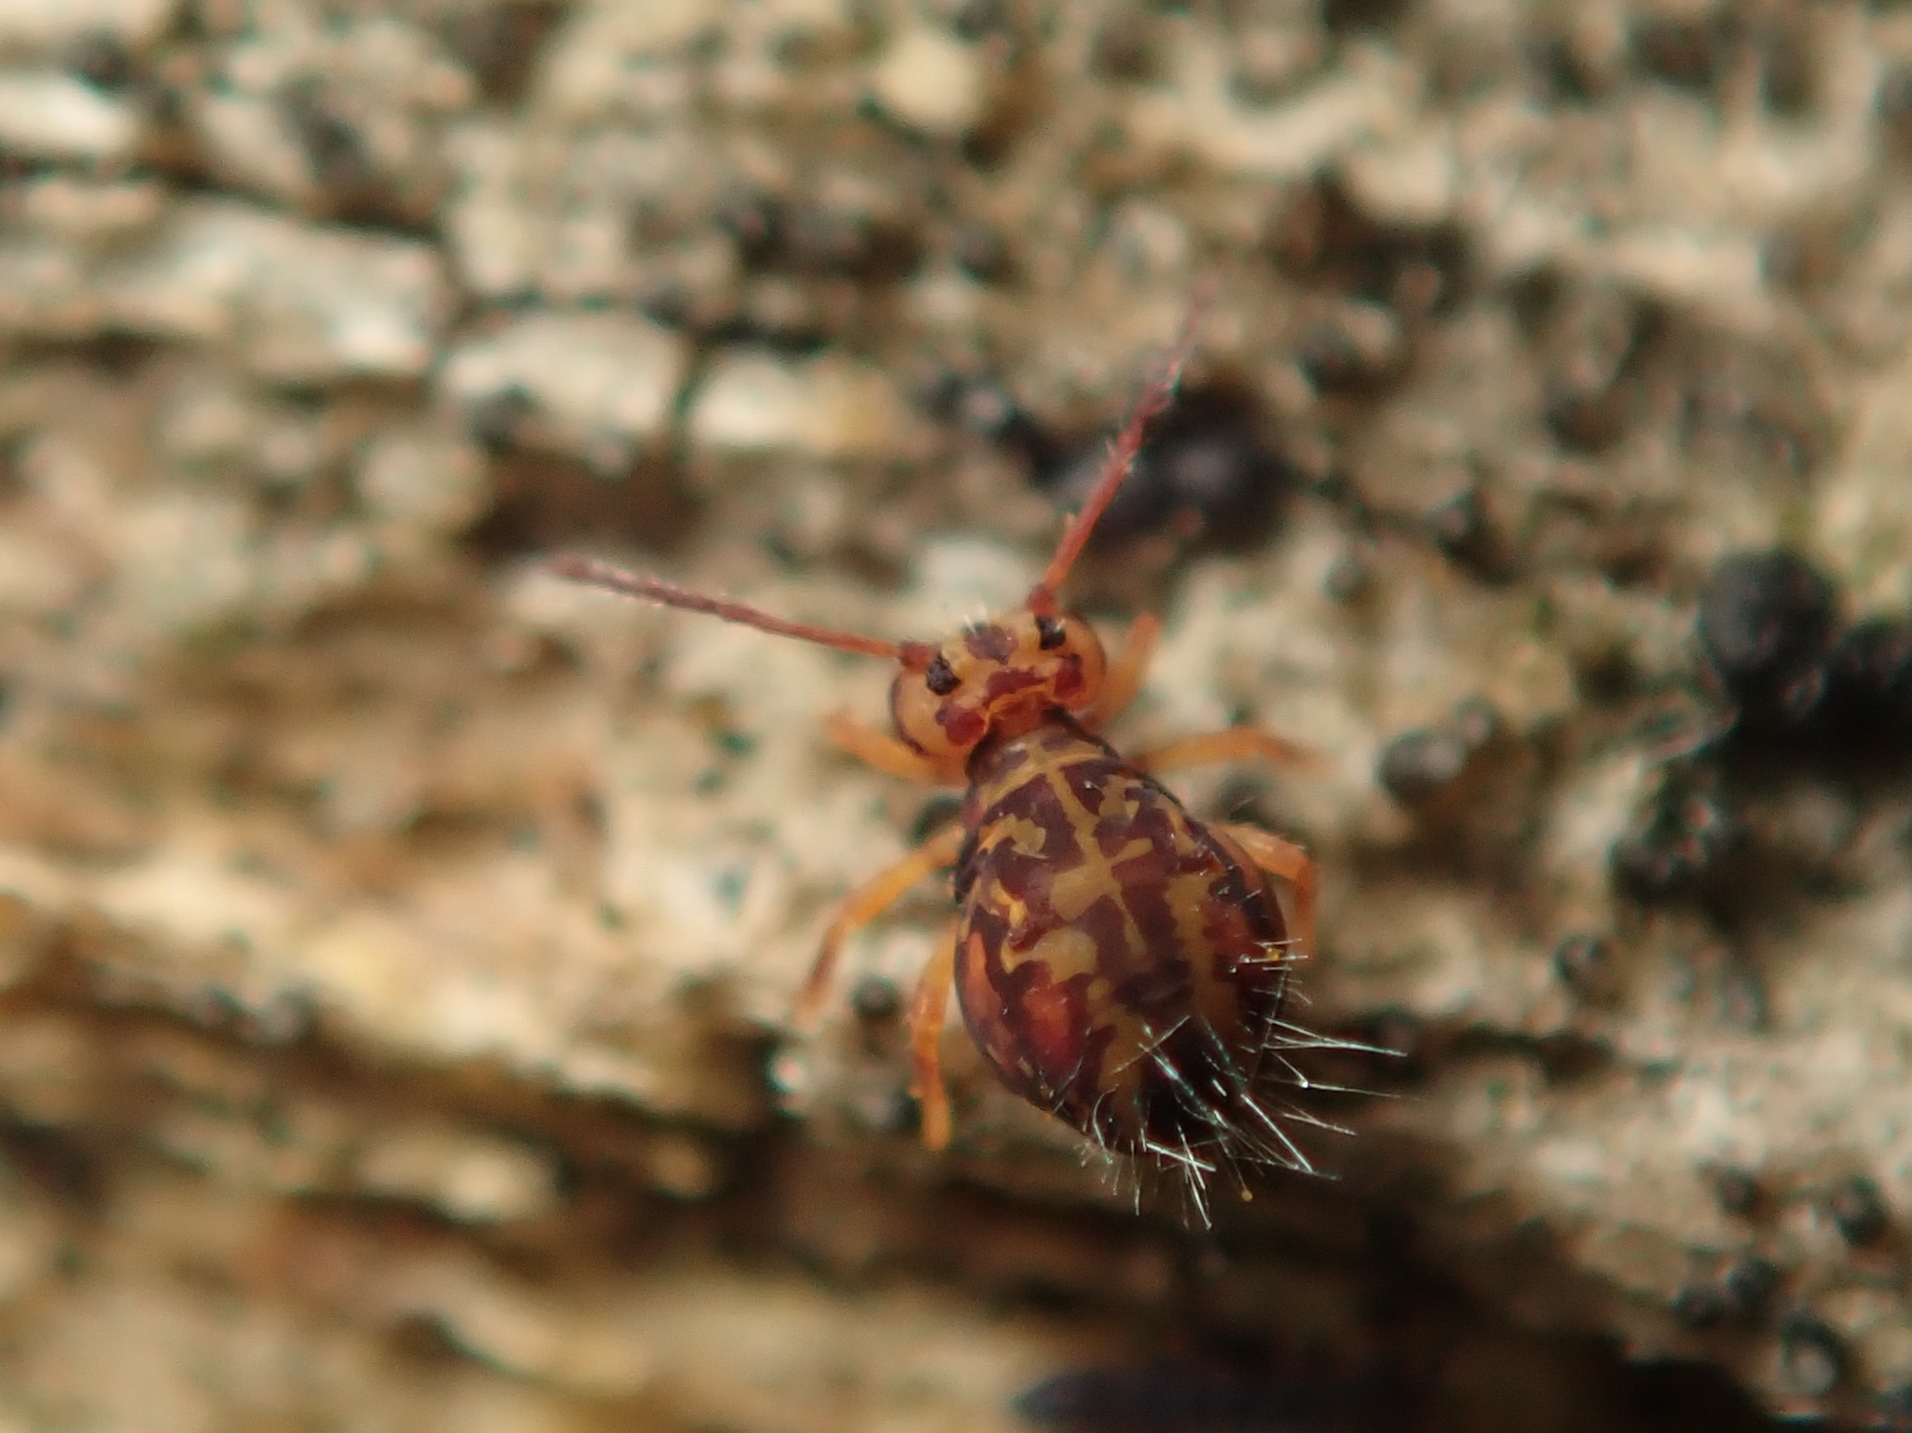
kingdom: Animalia
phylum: Arthropoda
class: Collembola
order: Symphypleona
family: Dicyrtomidae
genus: Dicyrtomina
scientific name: Dicyrtomina ornata
